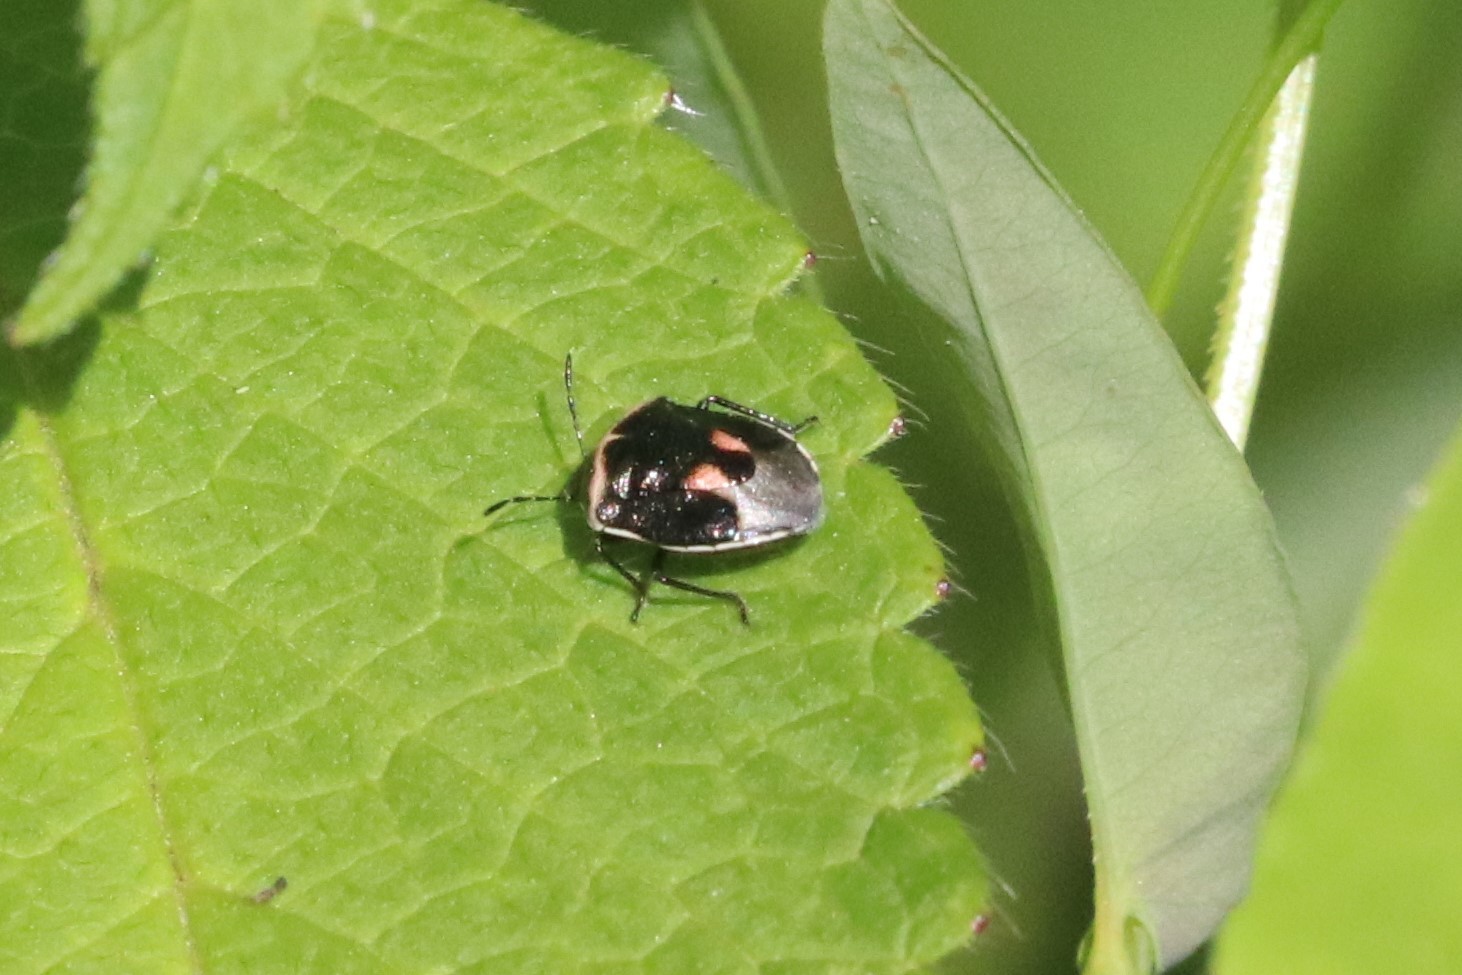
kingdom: Animalia
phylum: Arthropoda
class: Insecta
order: Hemiptera
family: Pentatomidae
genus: Cosmopepla
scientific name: Cosmopepla lintneriana
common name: Twice-stabbed stink bug
